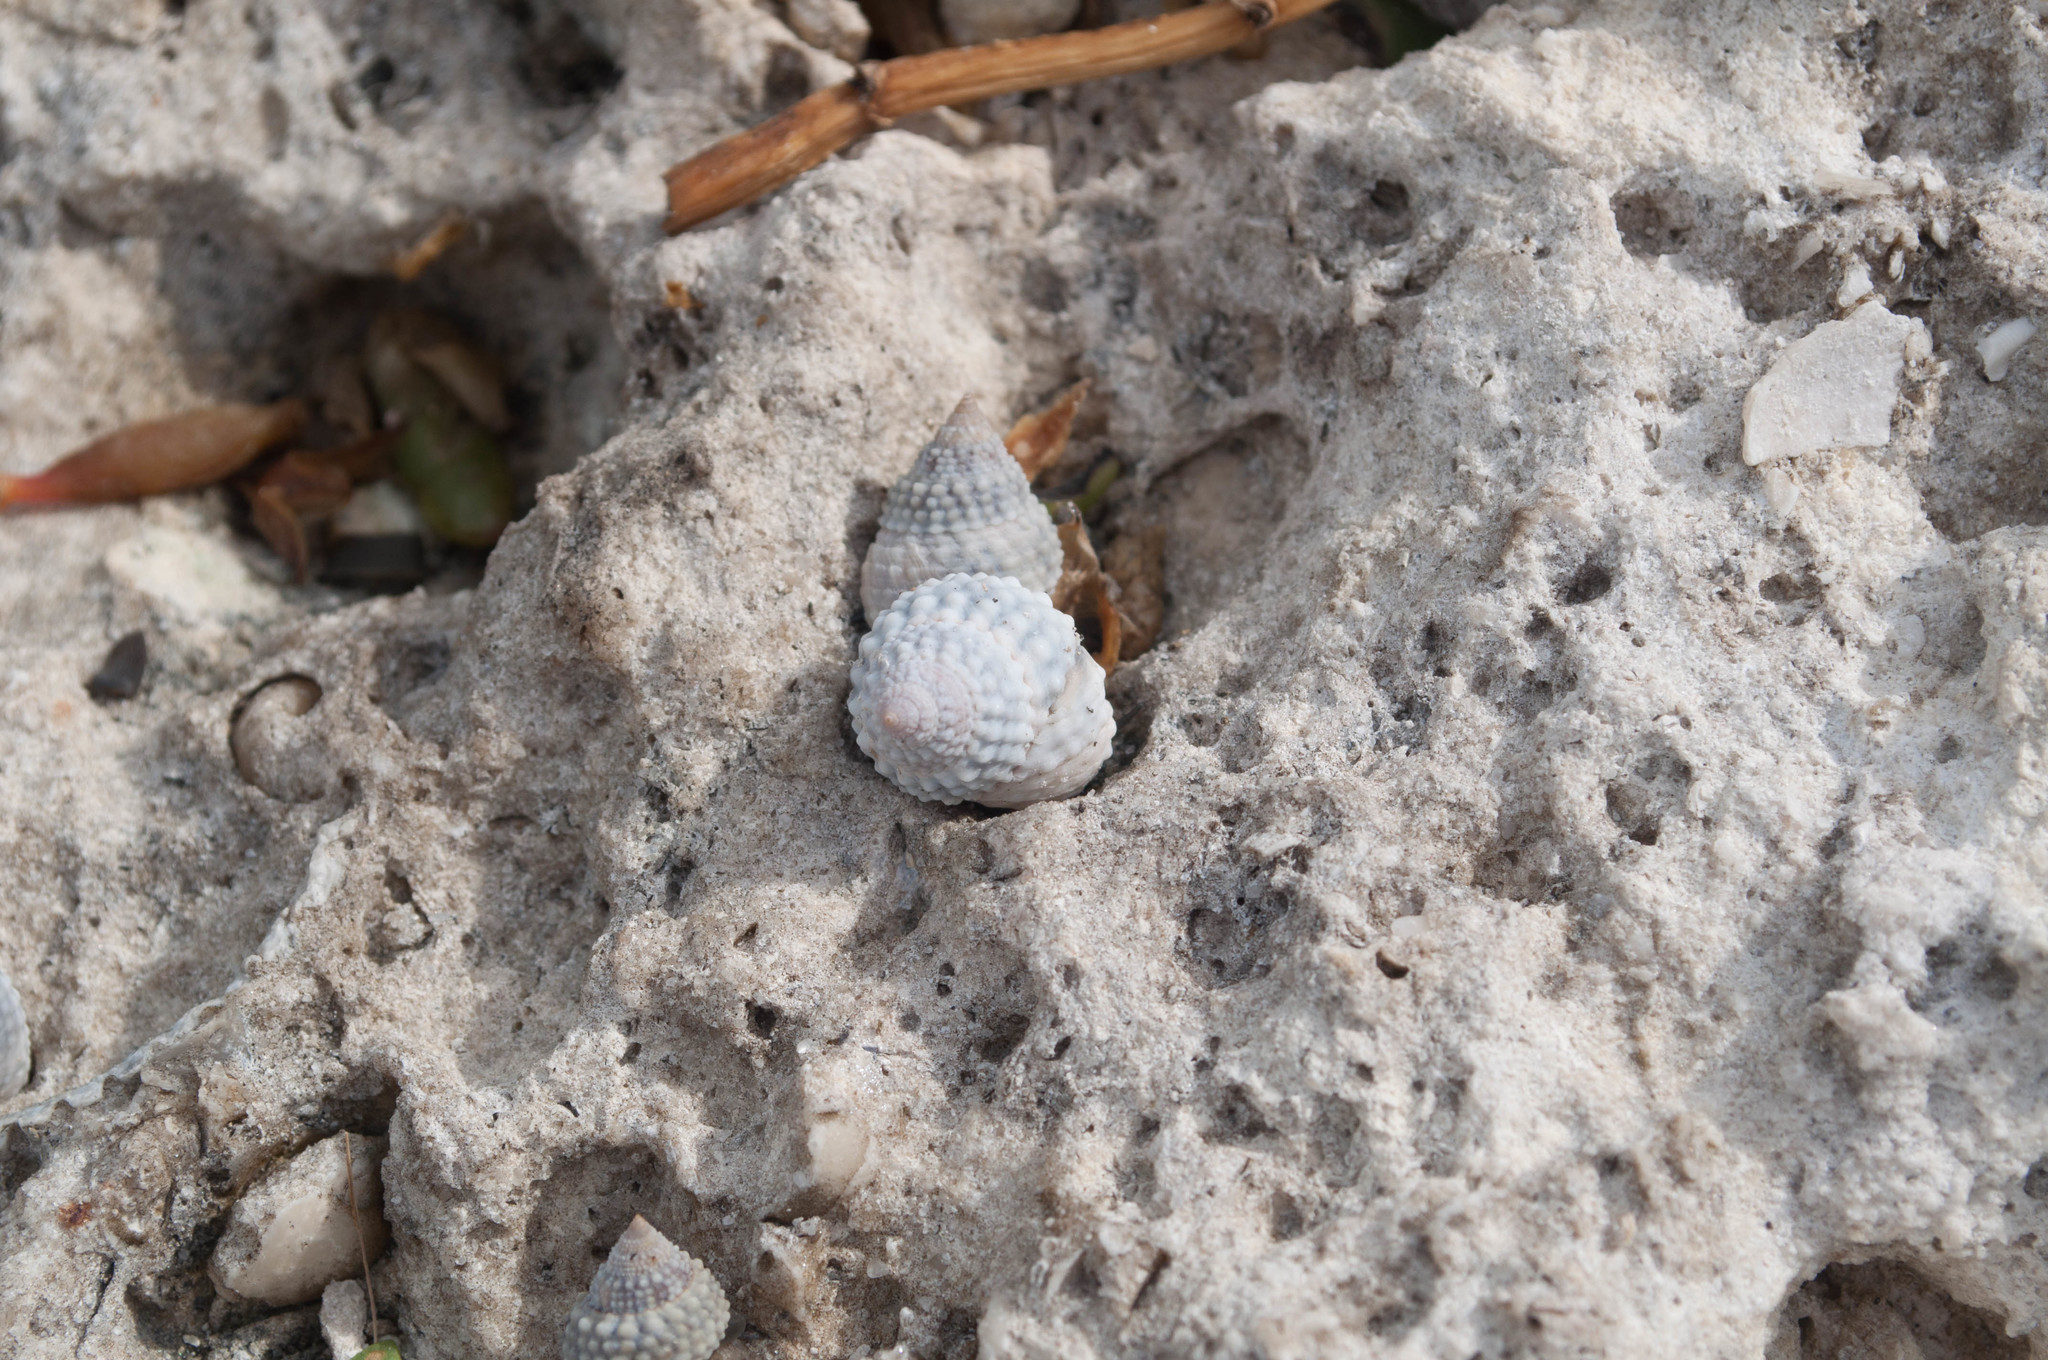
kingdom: Animalia
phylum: Mollusca
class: Gastropoda
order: Littorinimorpha
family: Littorinidae
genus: Cenchritis
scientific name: Cenchritis muricatus
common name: Beaded periwinkle
